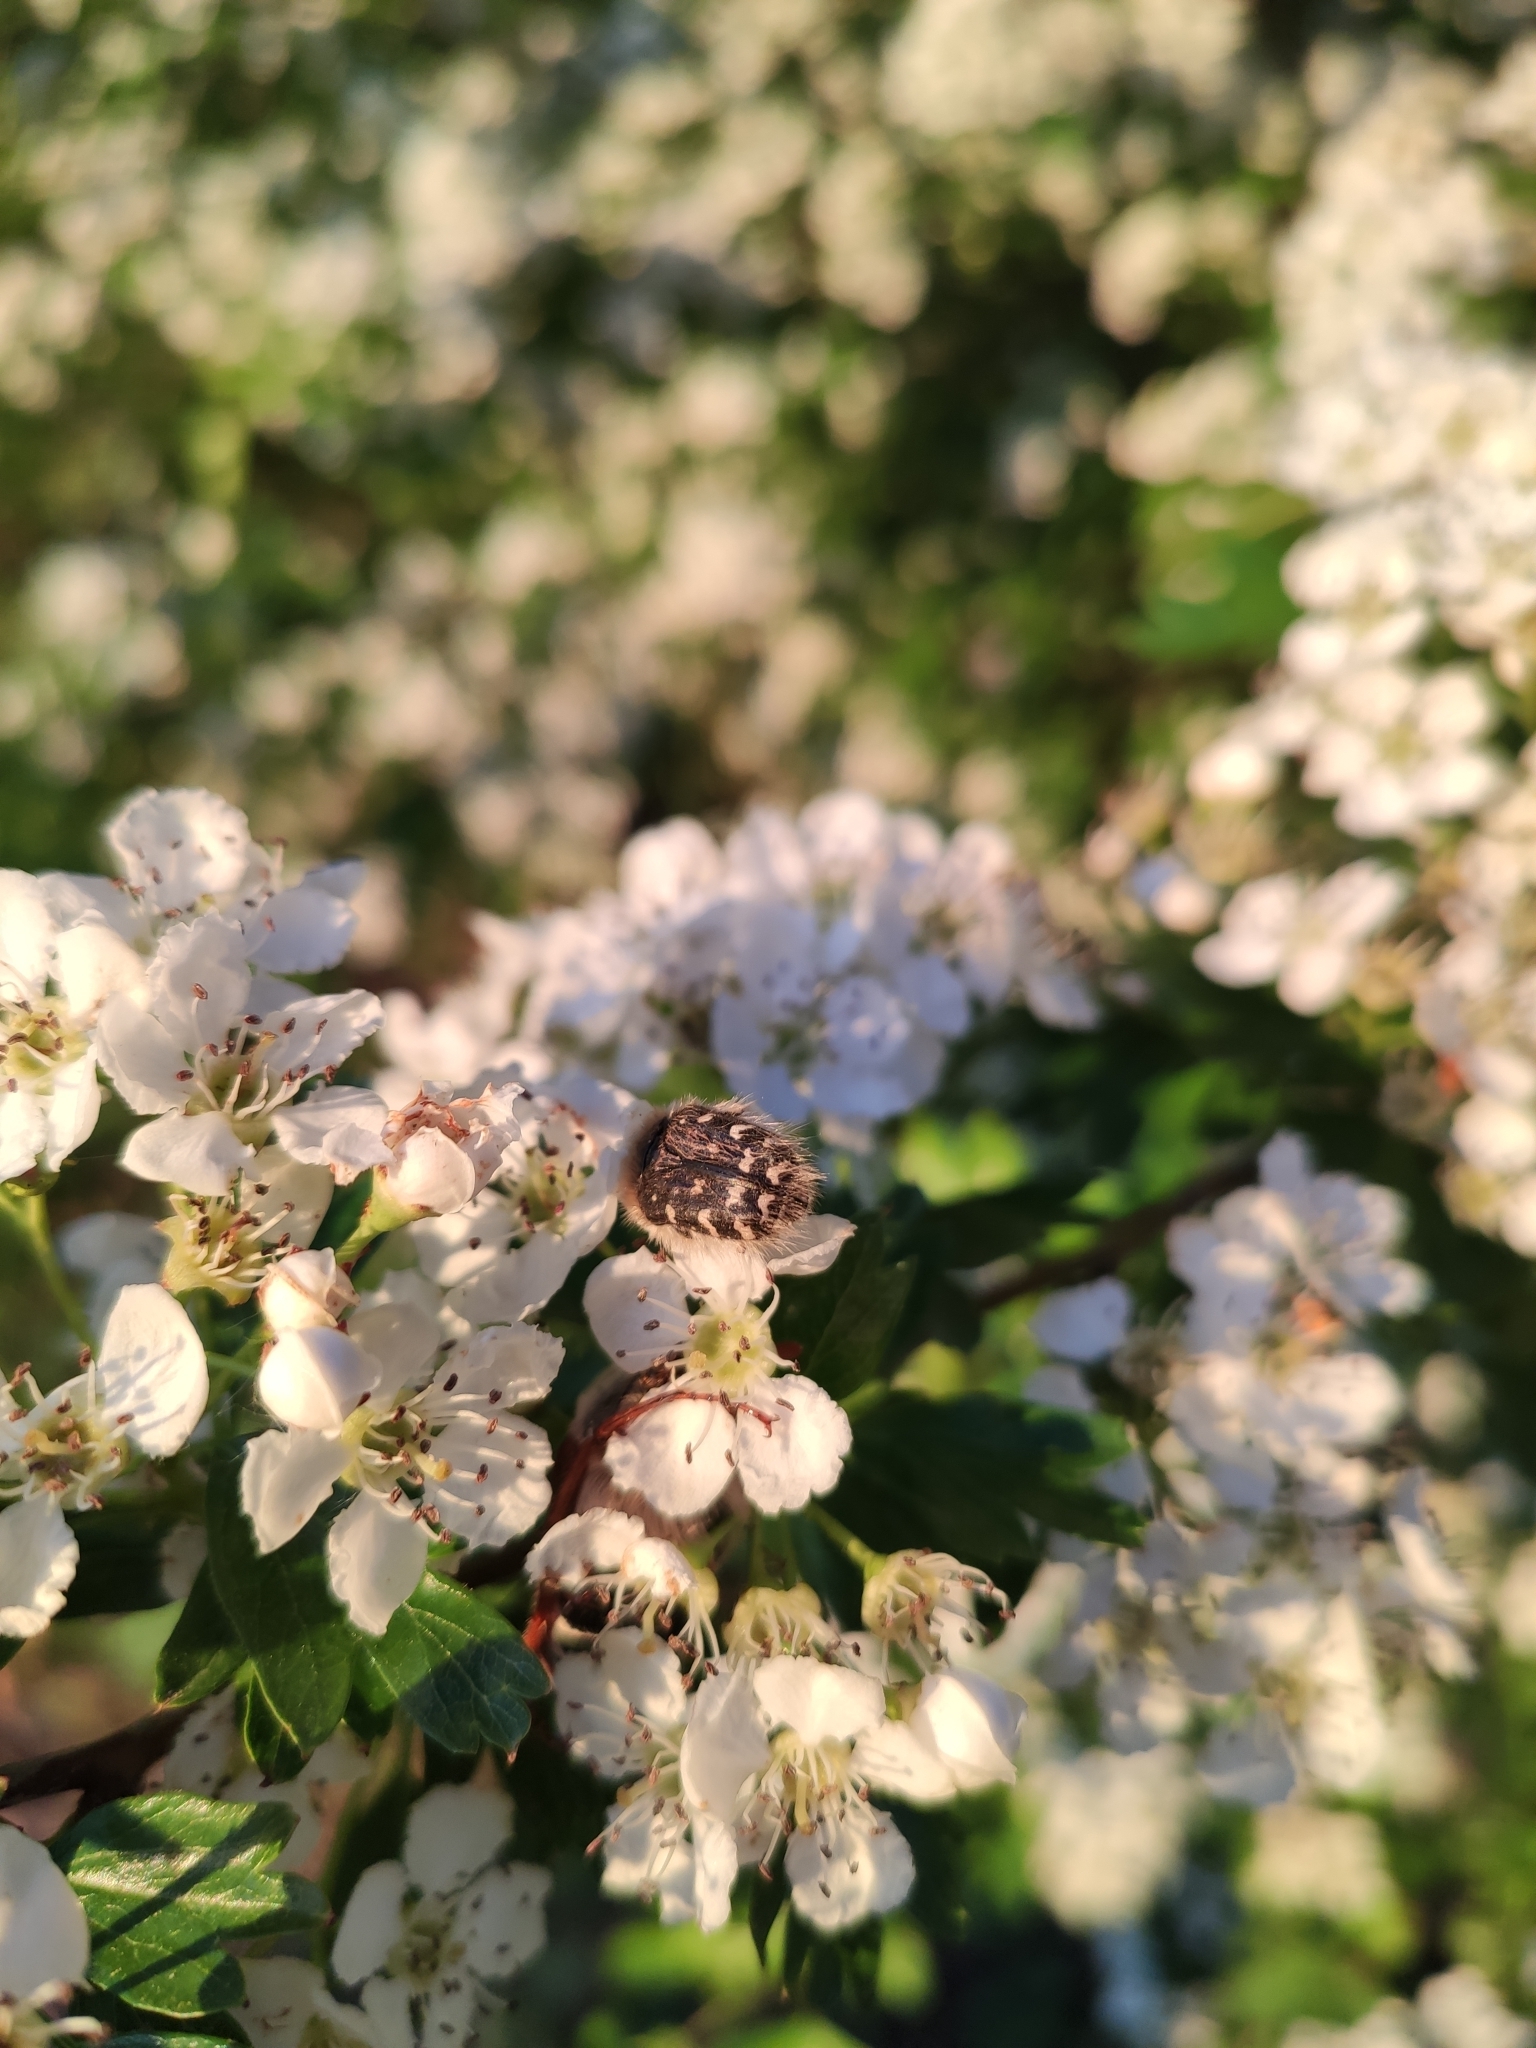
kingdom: Animalia
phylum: Arthropoda
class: Insecta
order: Coleoptera
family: Scarabaeidae
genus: Tropinota
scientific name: Tropinota hirta
